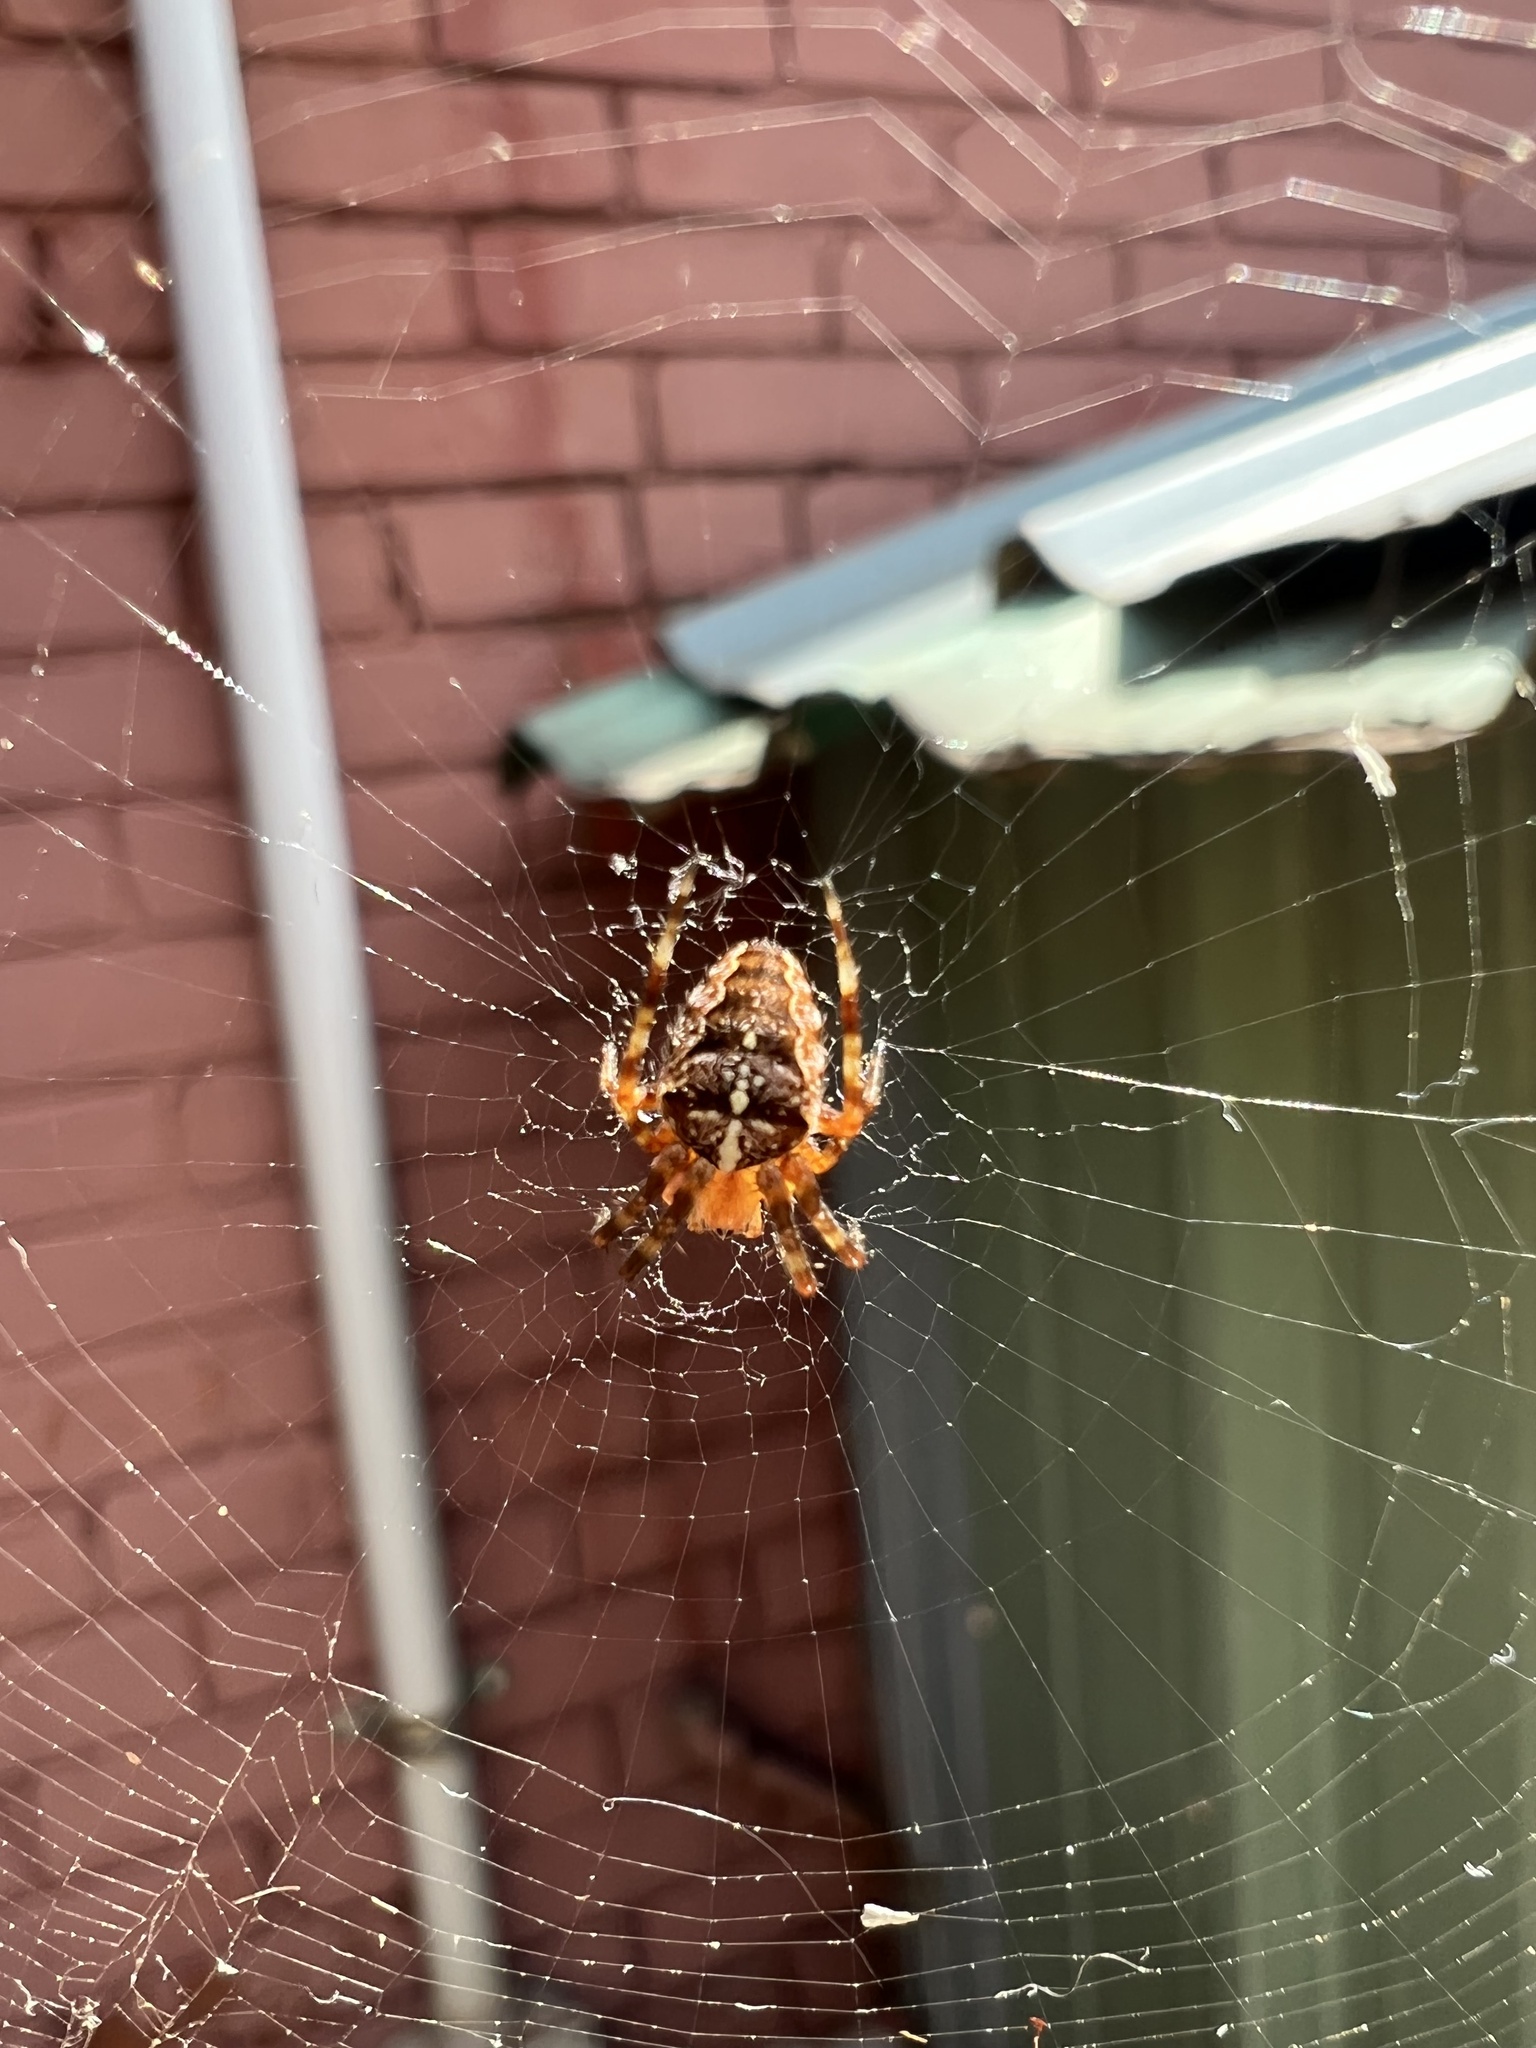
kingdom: Animalia
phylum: Arthropoda
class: Arachnida
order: Araneae
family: Araneidae
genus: Araneus
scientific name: Araneus diadematus
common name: Cross orbweaver
